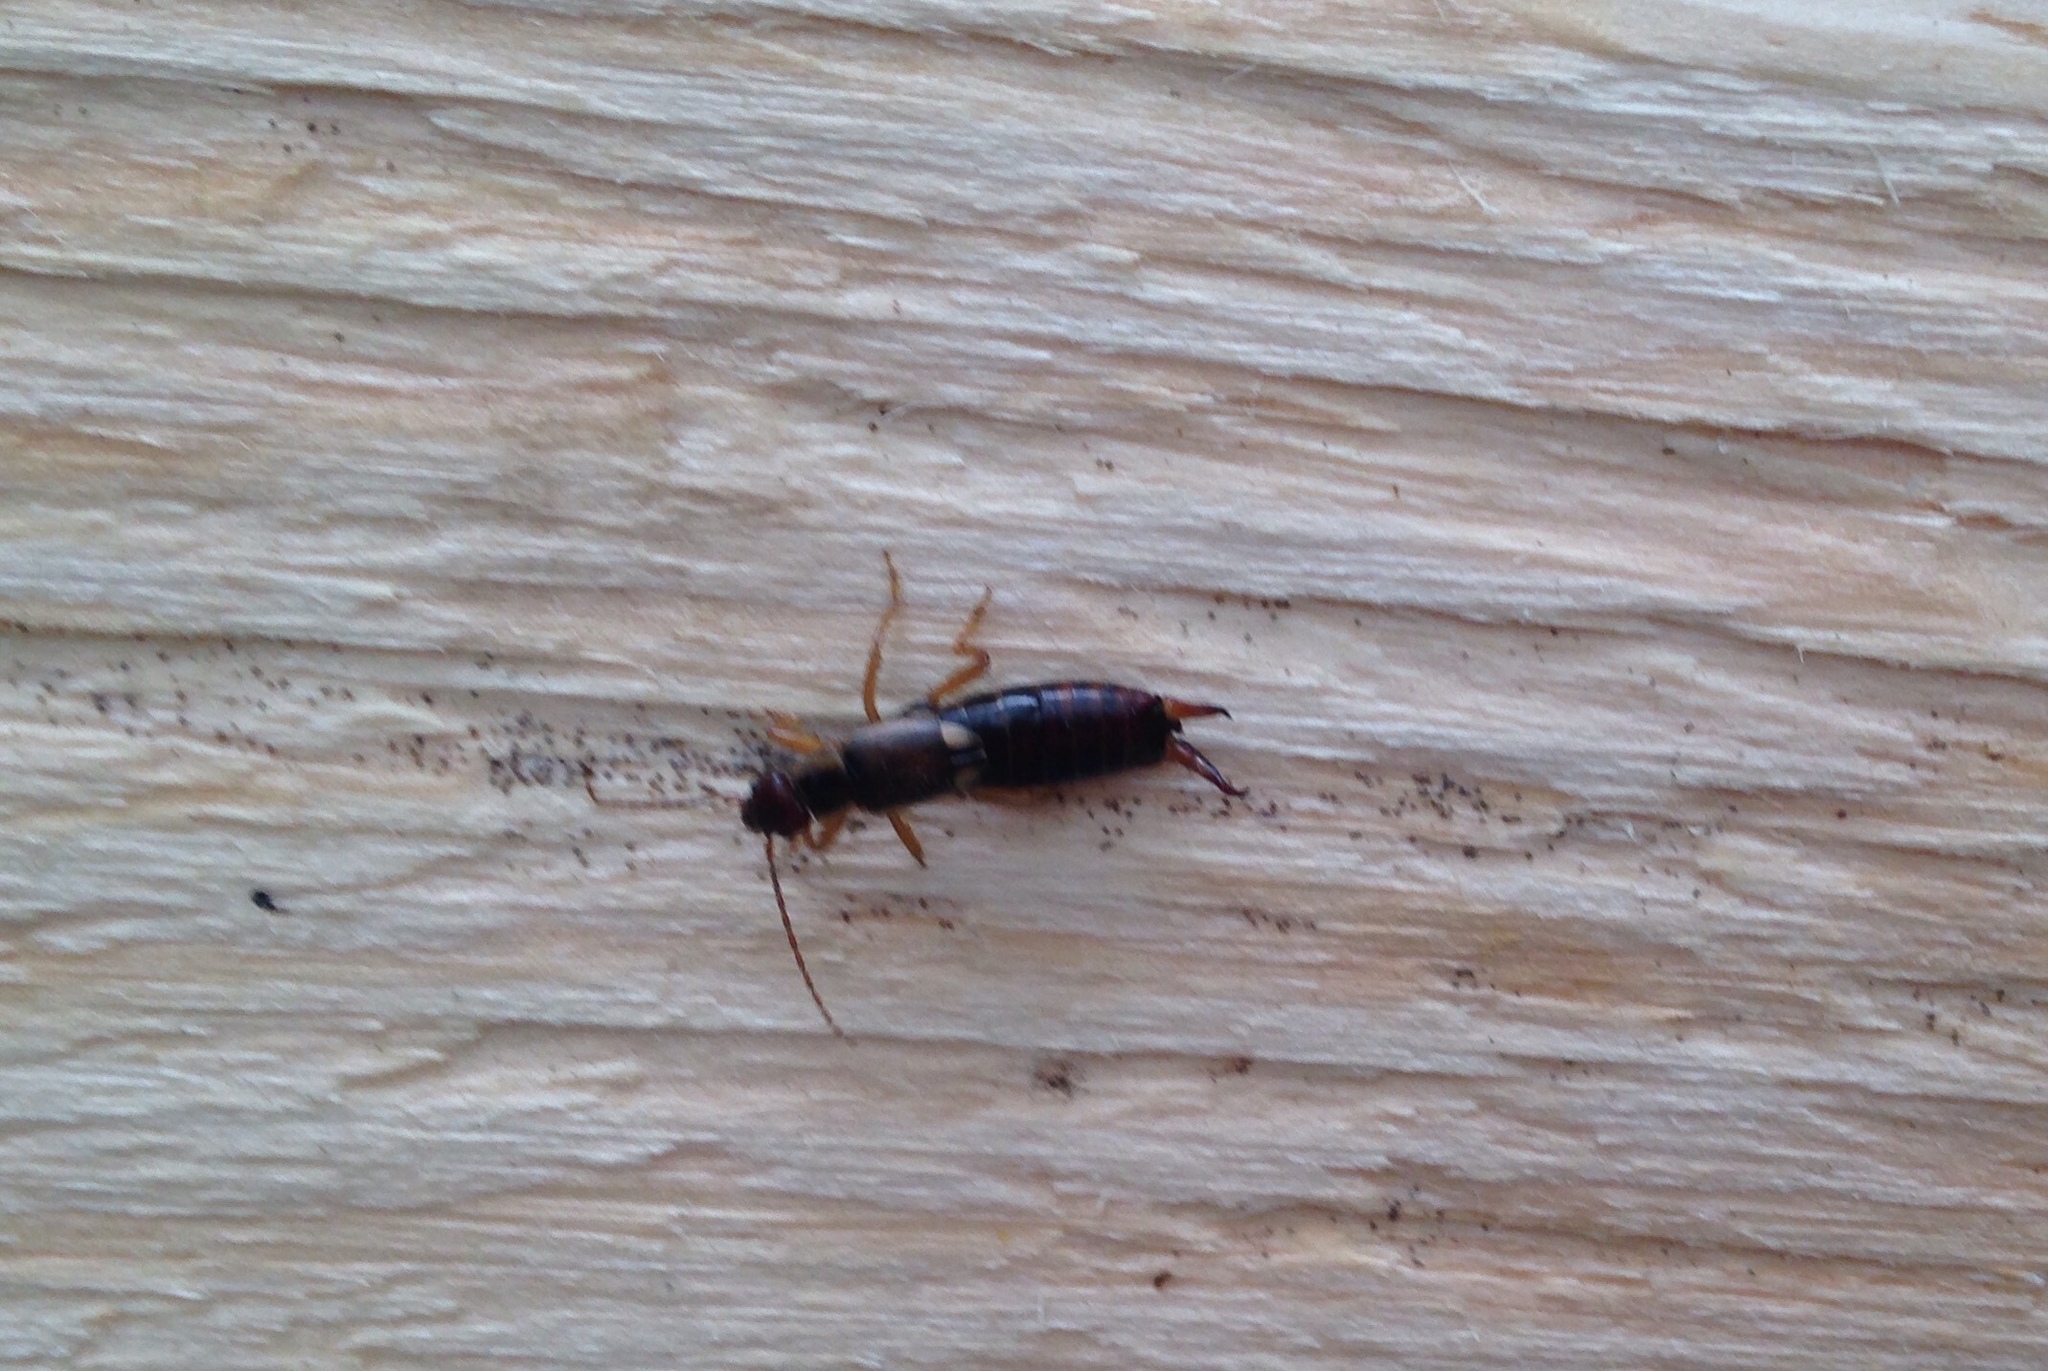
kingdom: Animalia
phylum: Arthropoda
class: Insecta
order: Dermaptera
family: Forficulidae
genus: Forficula
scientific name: Forficula
